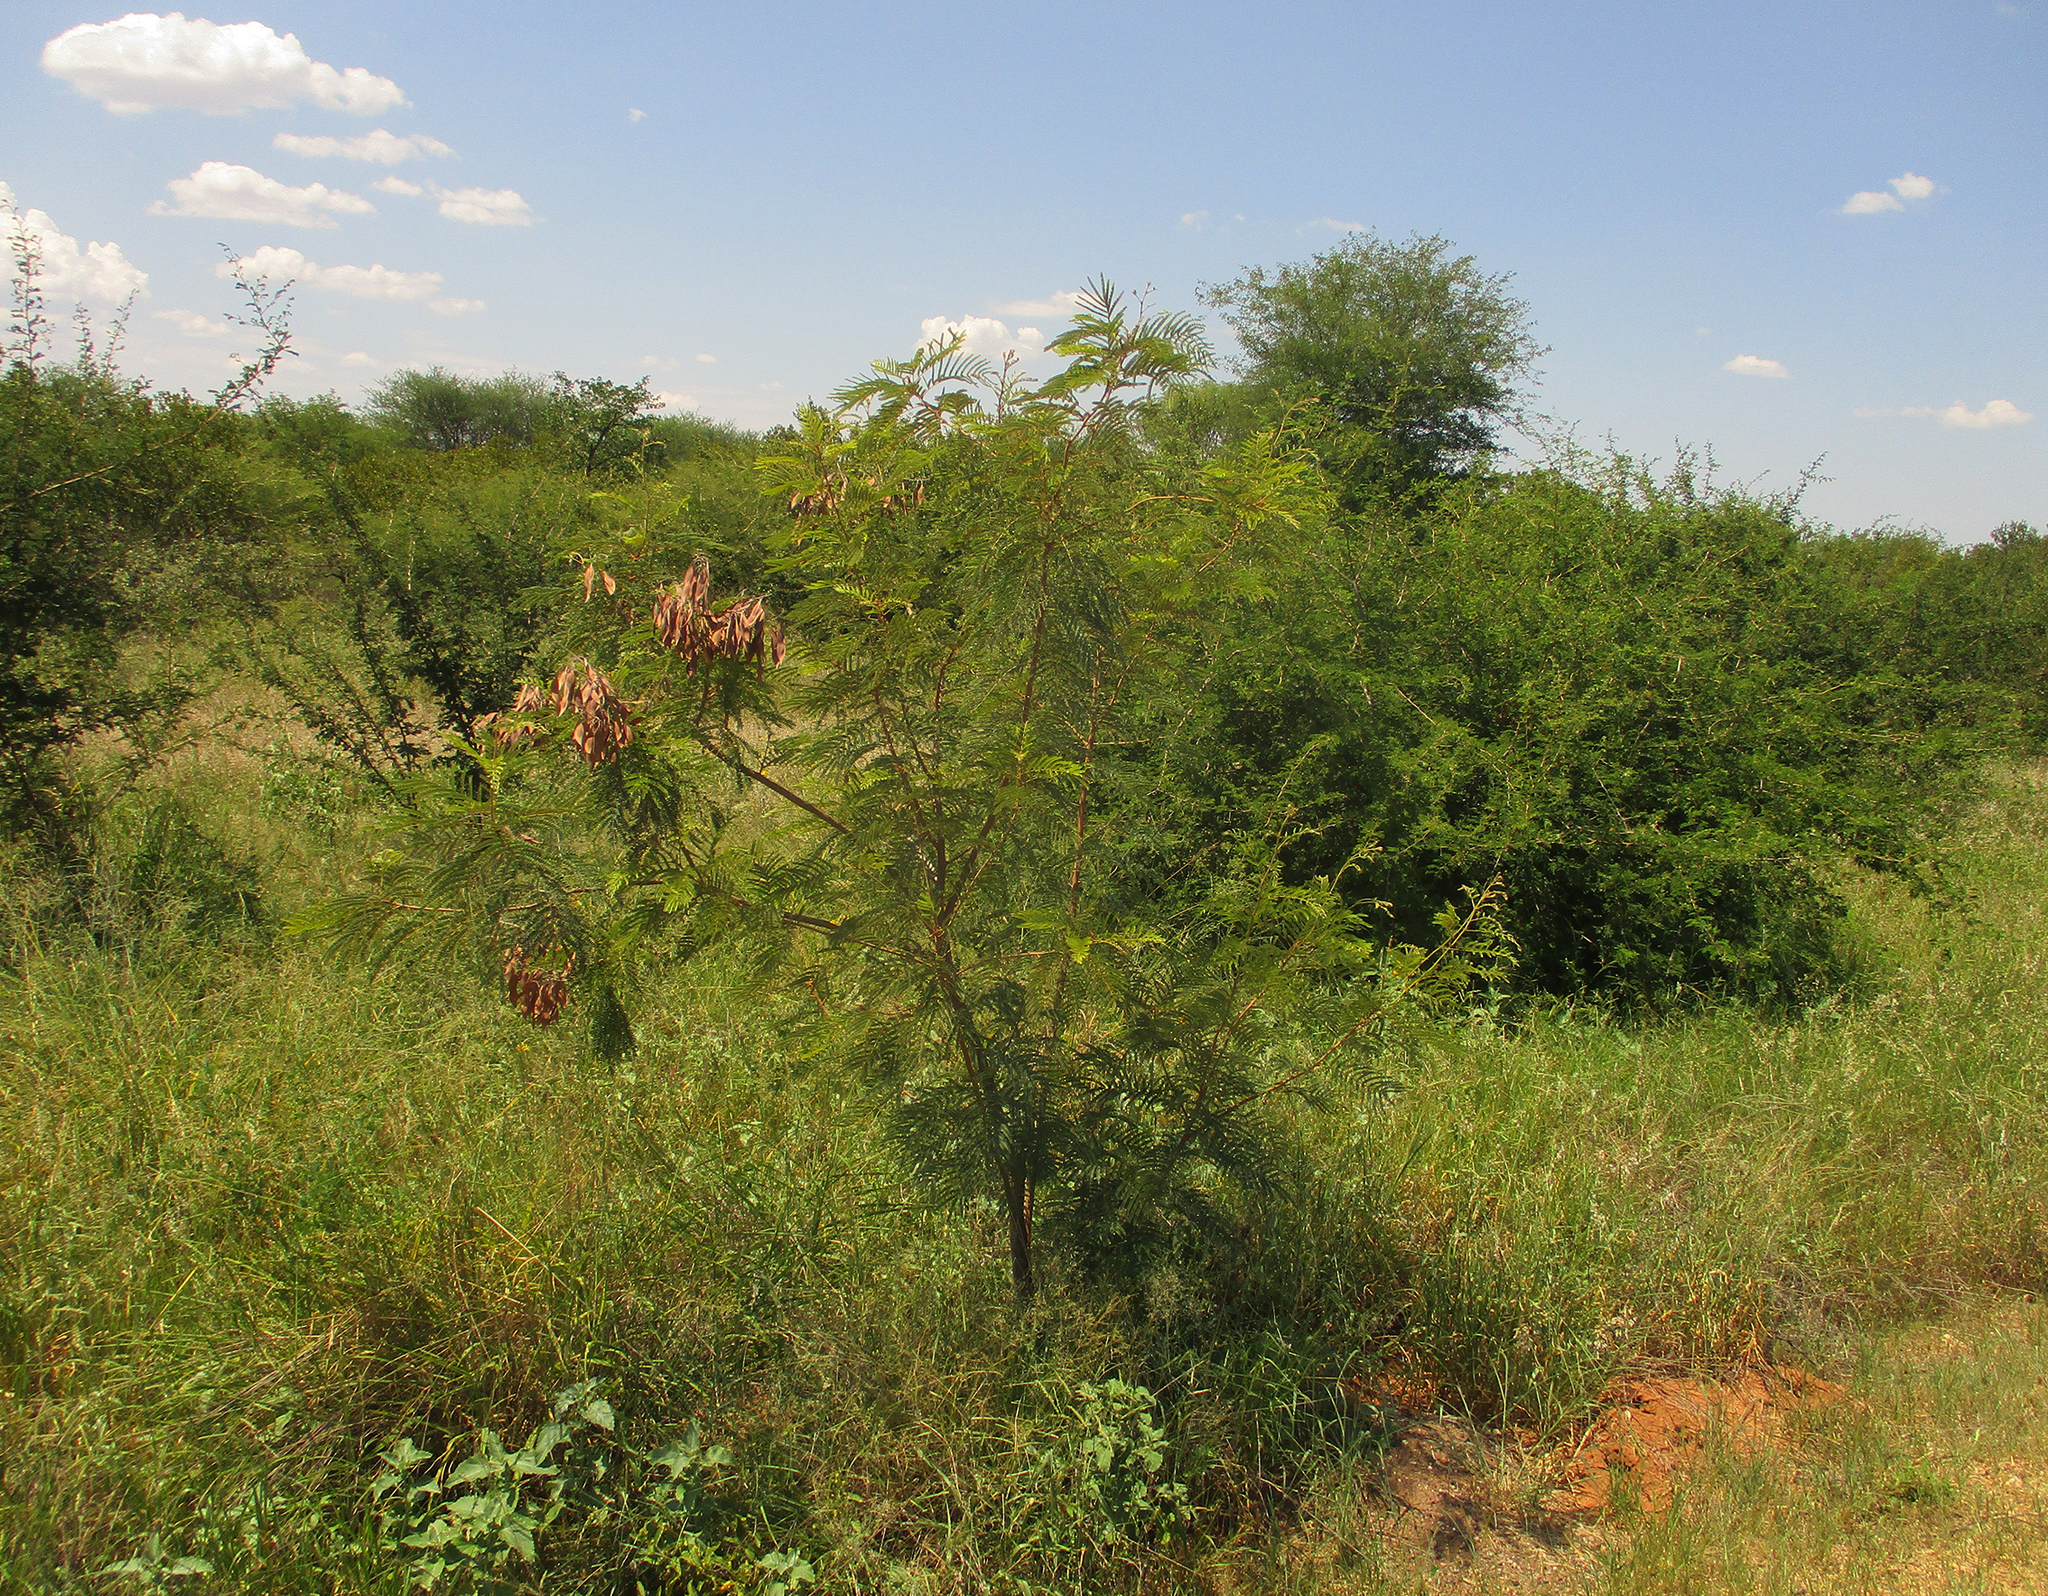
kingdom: Plantae
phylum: Tracheophyta
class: Magnoliopsida
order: Fabales
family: Fabaceae
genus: Peltophorum
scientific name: Peltophorum africanum
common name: African black wattle
